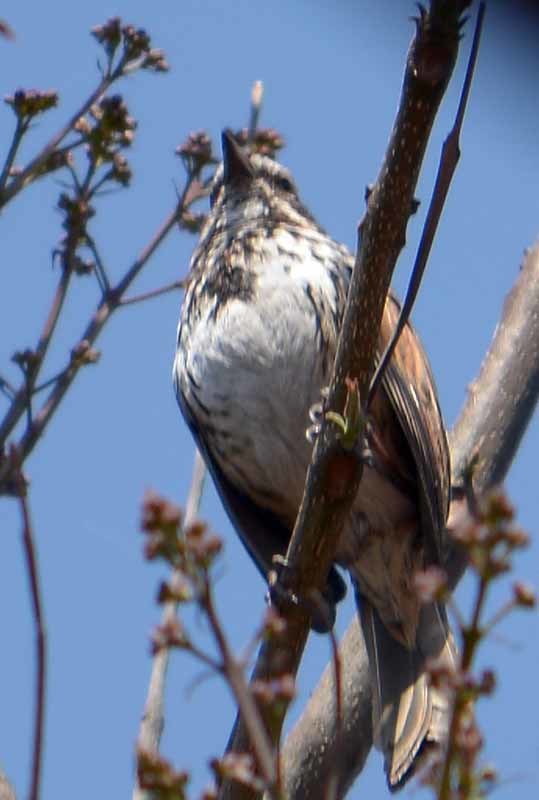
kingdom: Animalia
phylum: Chordata
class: Aves
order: Passeriformes
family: Passerellidae
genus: Melospiza
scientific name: Melospiza melodia
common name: Song sparrow
